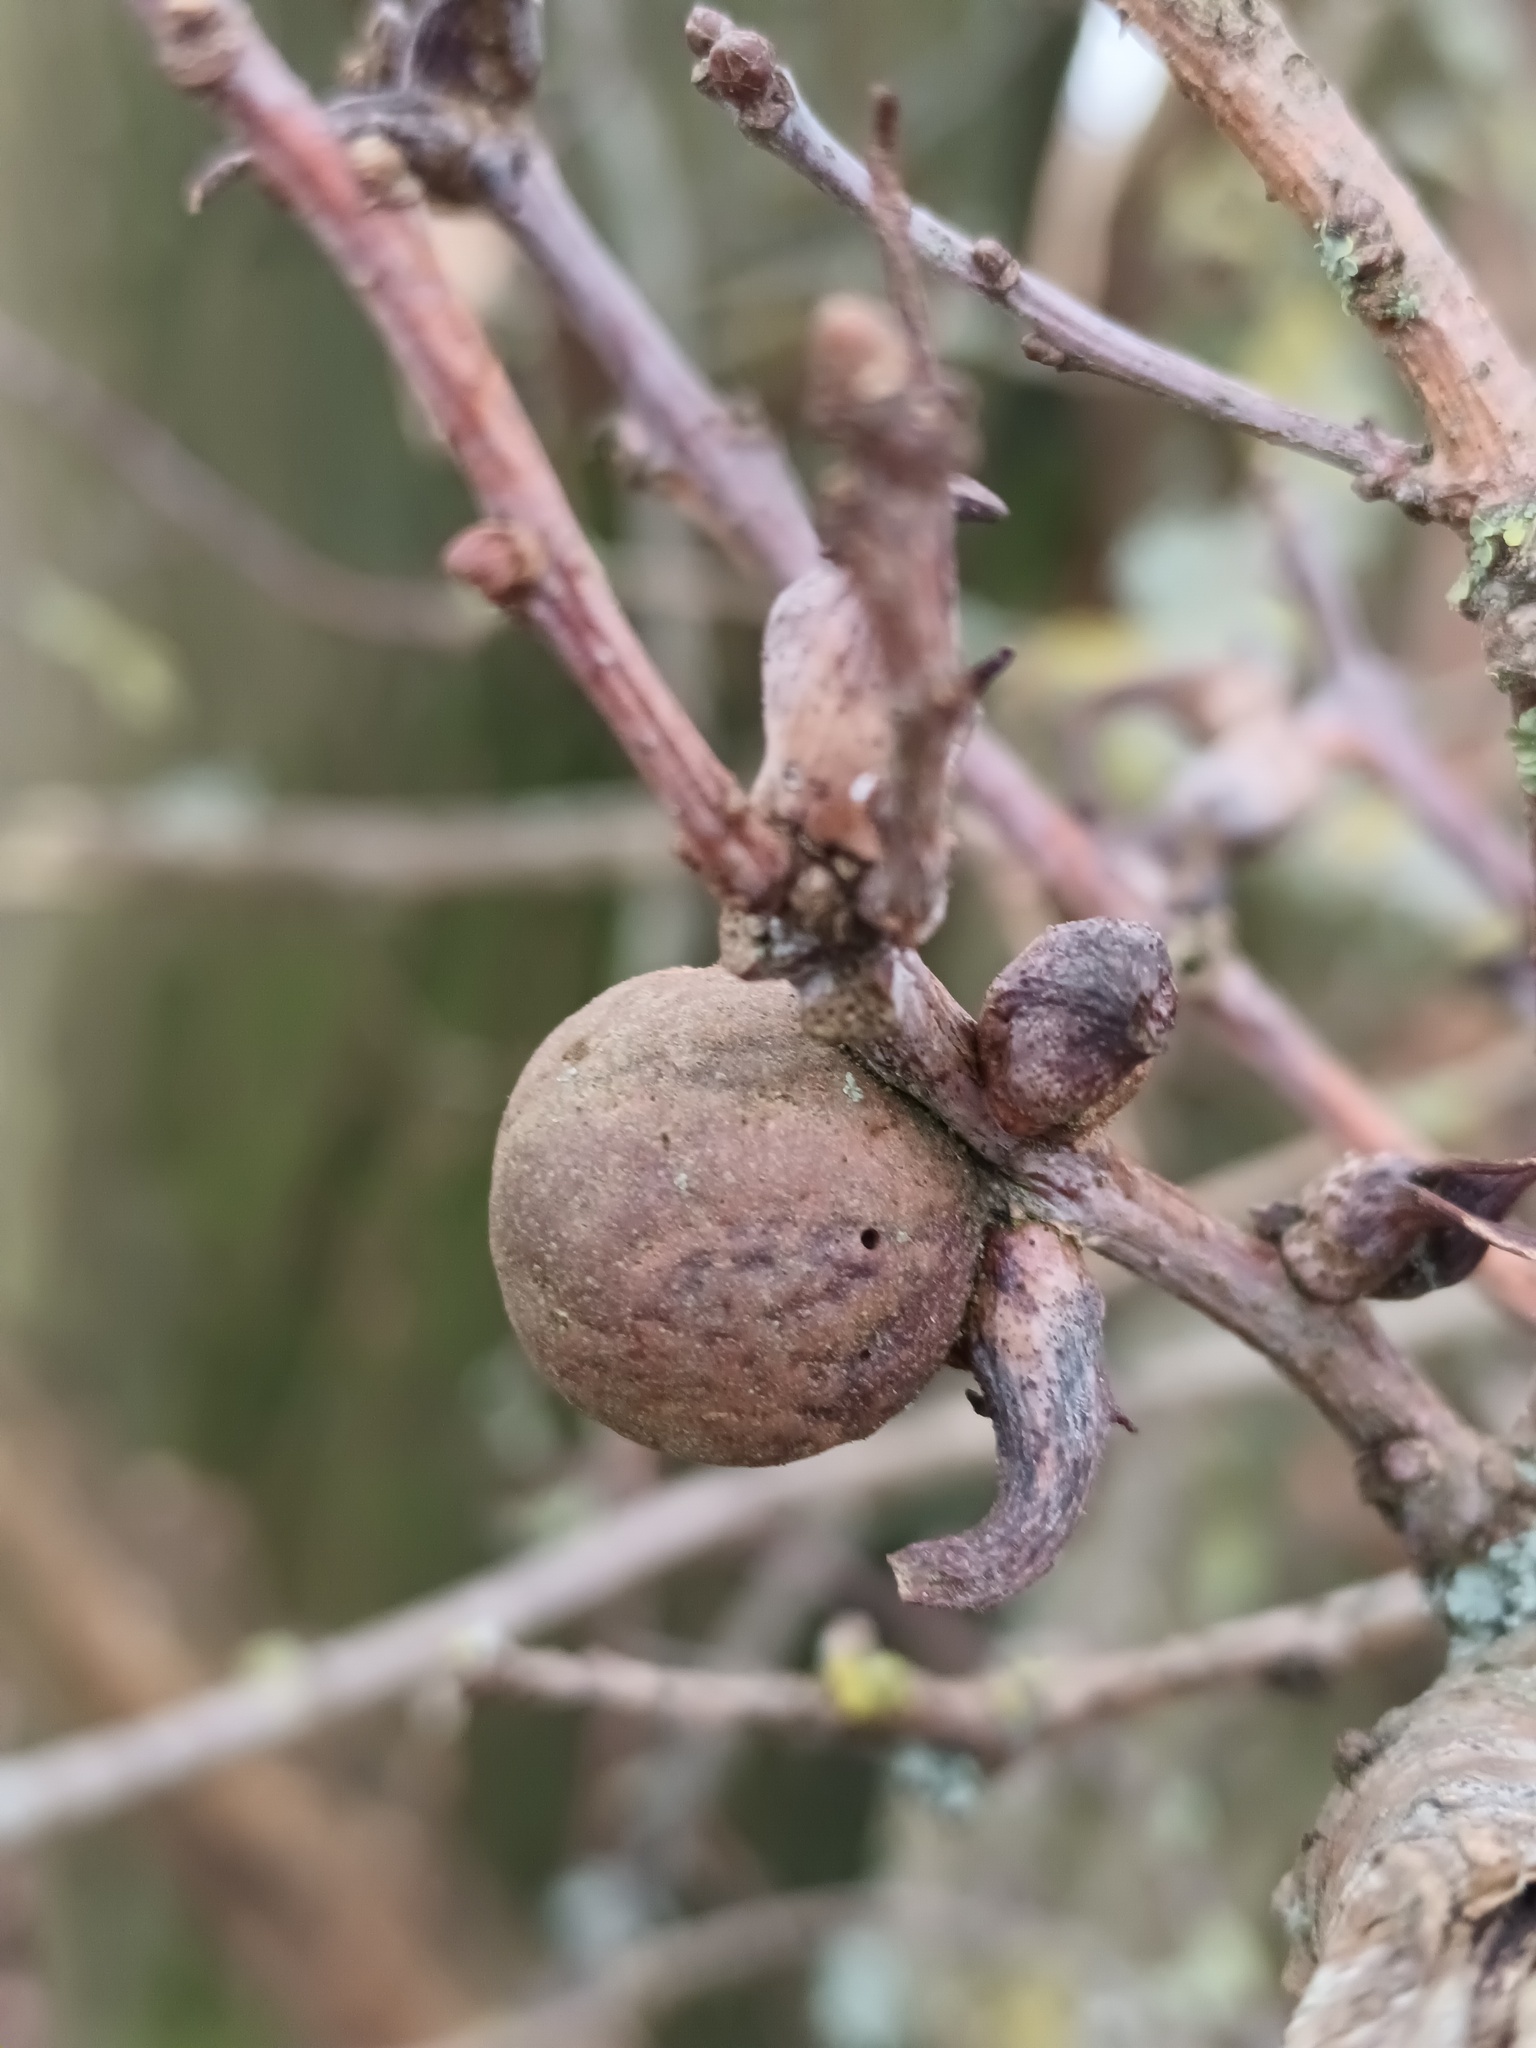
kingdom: Animalia
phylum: Arthropoda
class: Insecta
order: Hymenoptera
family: Cynipidae
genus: Andricus
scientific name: Andricus kollari
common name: Marble gall
